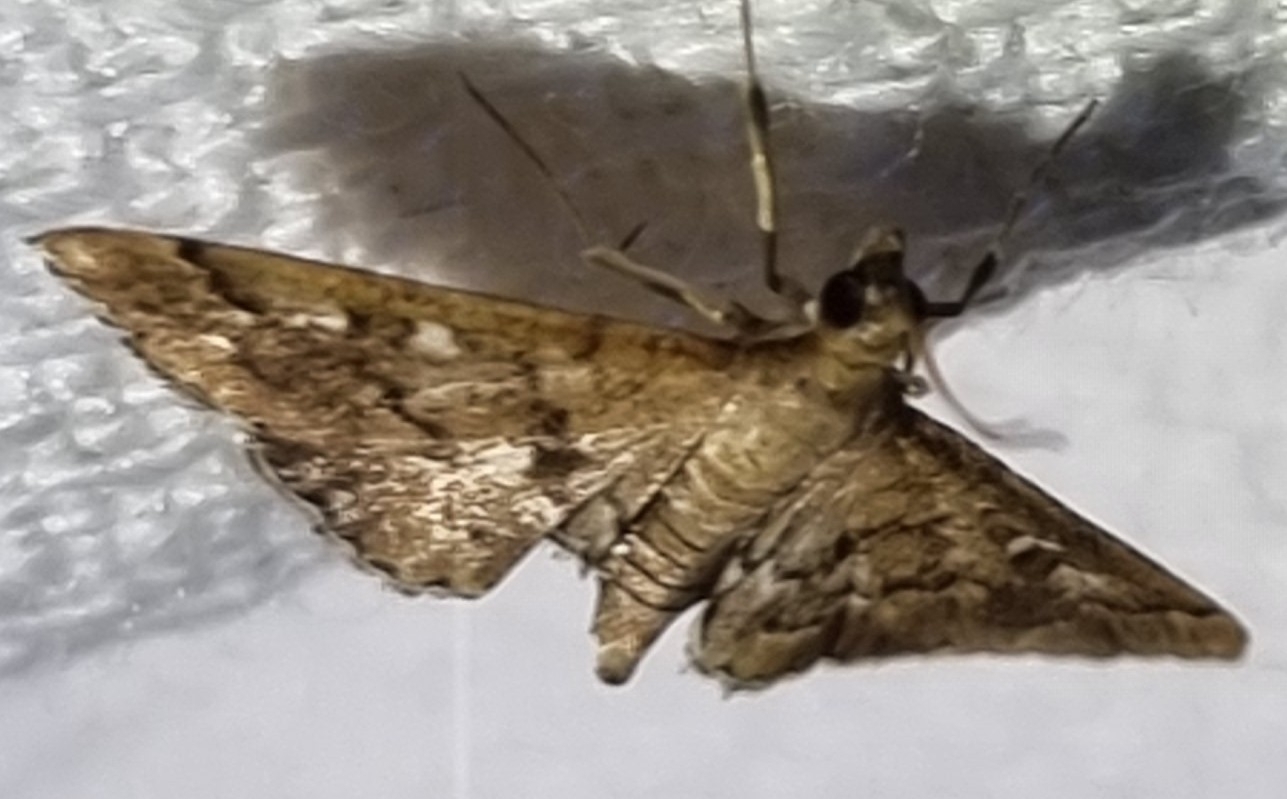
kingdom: Animalia
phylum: Arthropoda
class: Insecta
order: Lepidoptera
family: Crambidae
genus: Nacoleia
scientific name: Nacoleia rhoeoalis
